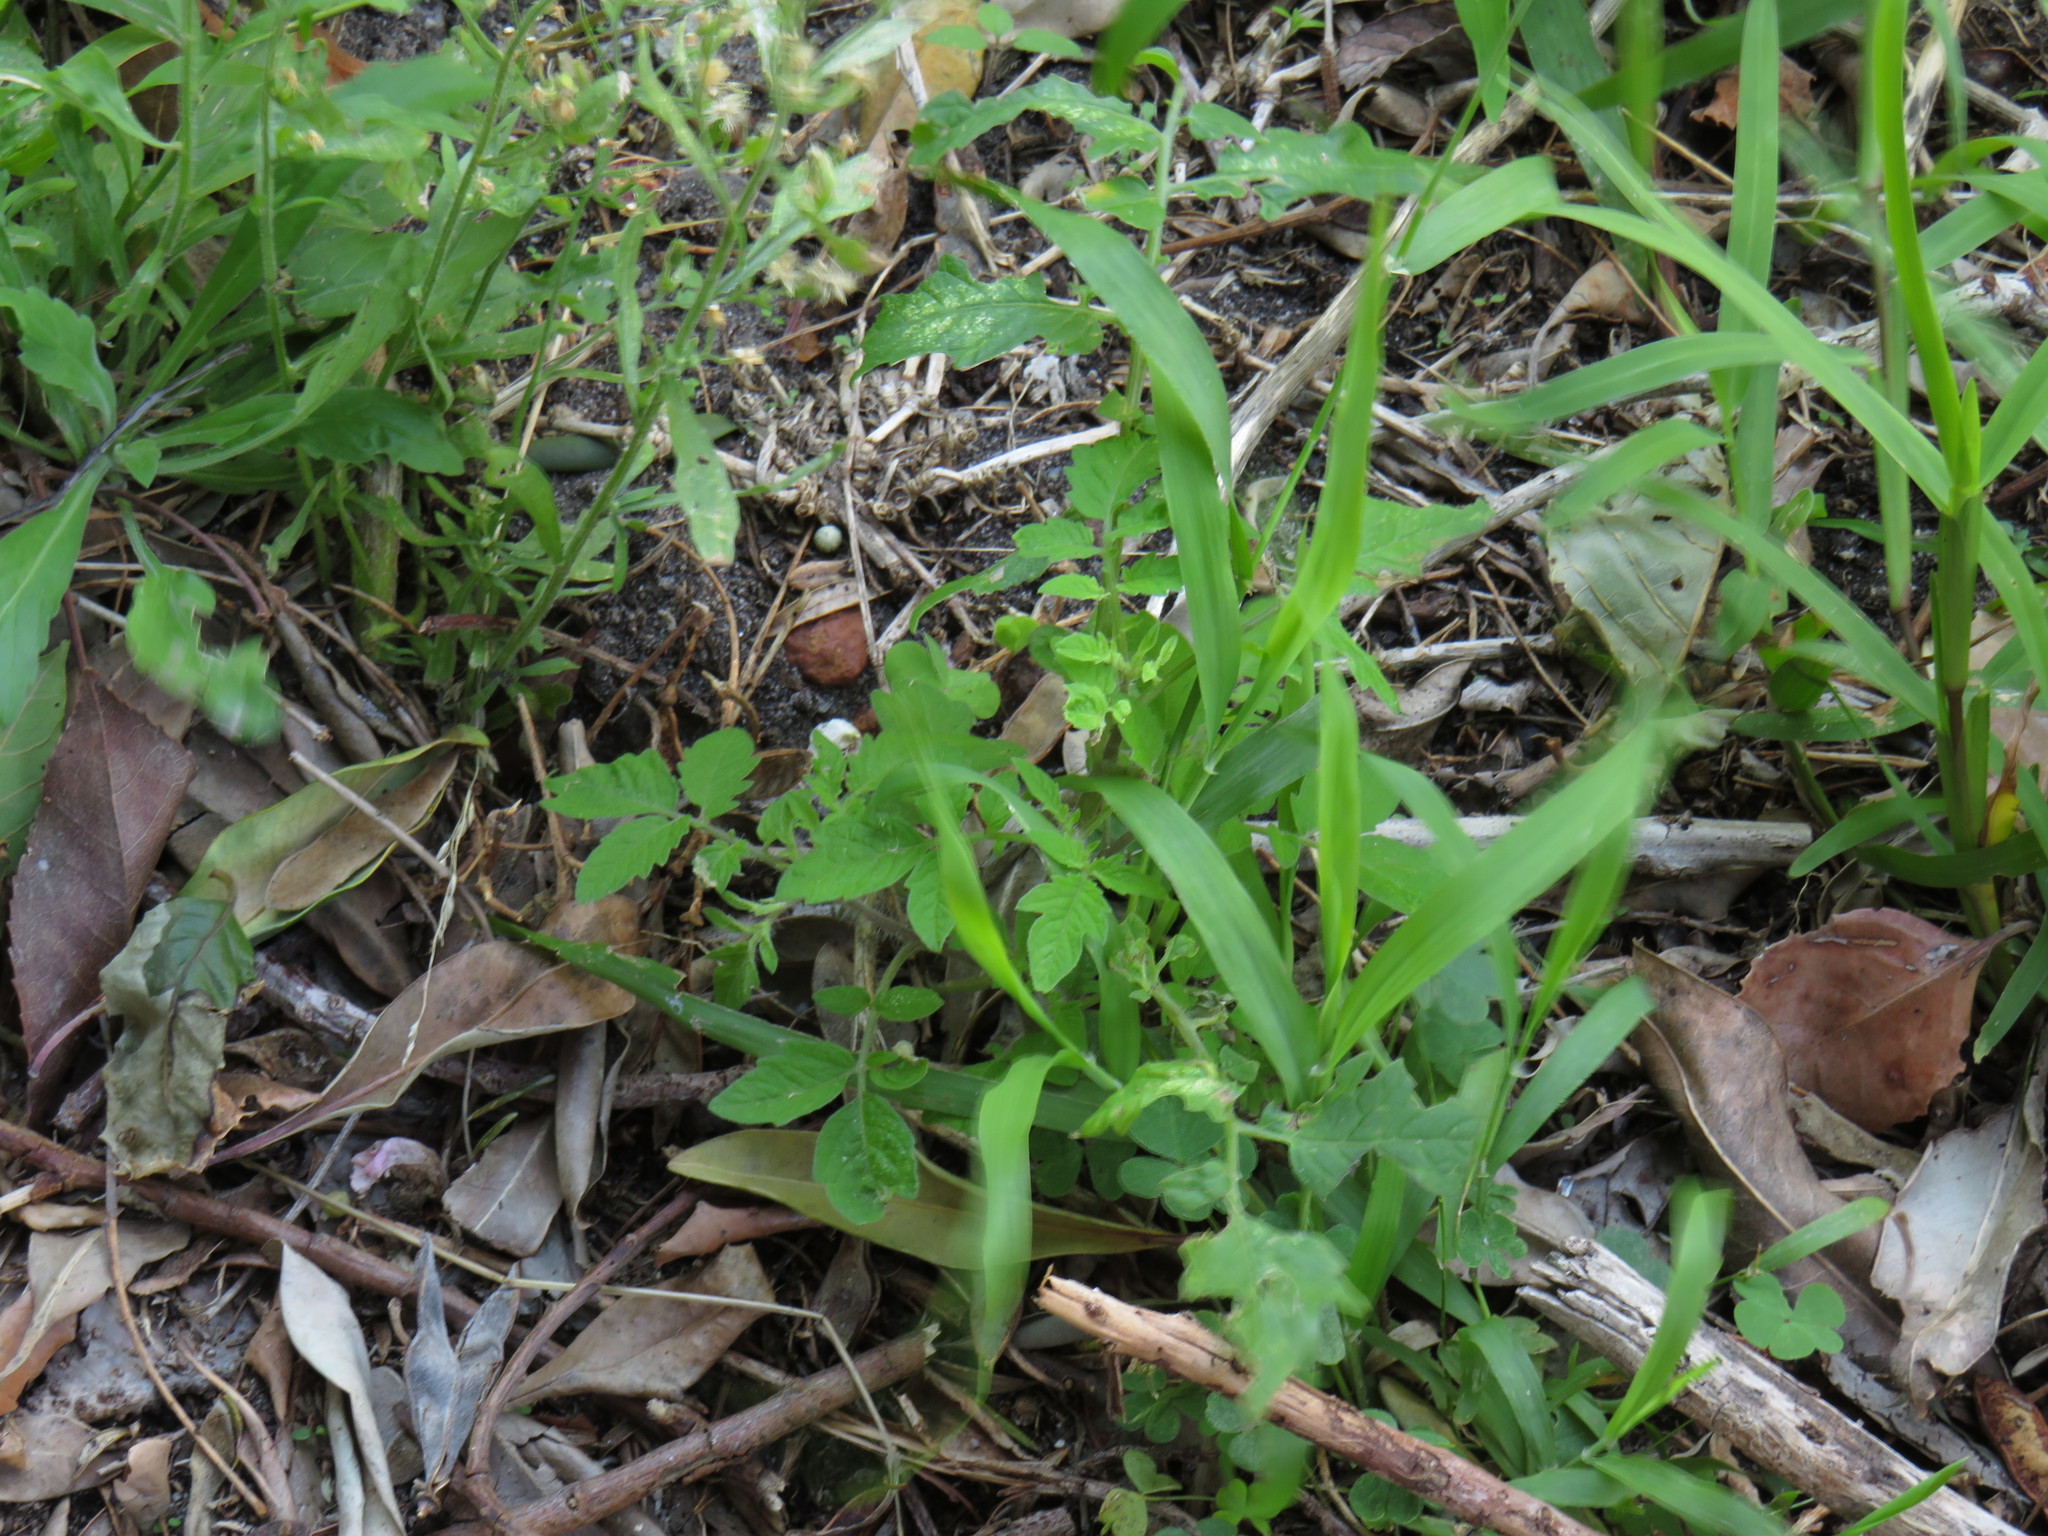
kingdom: Plantae
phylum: Tracheophyta
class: Magnoliopsida
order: Solanales
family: Solanaceae
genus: Solanum
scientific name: Solanum lycopersicum
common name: Garden tomato
